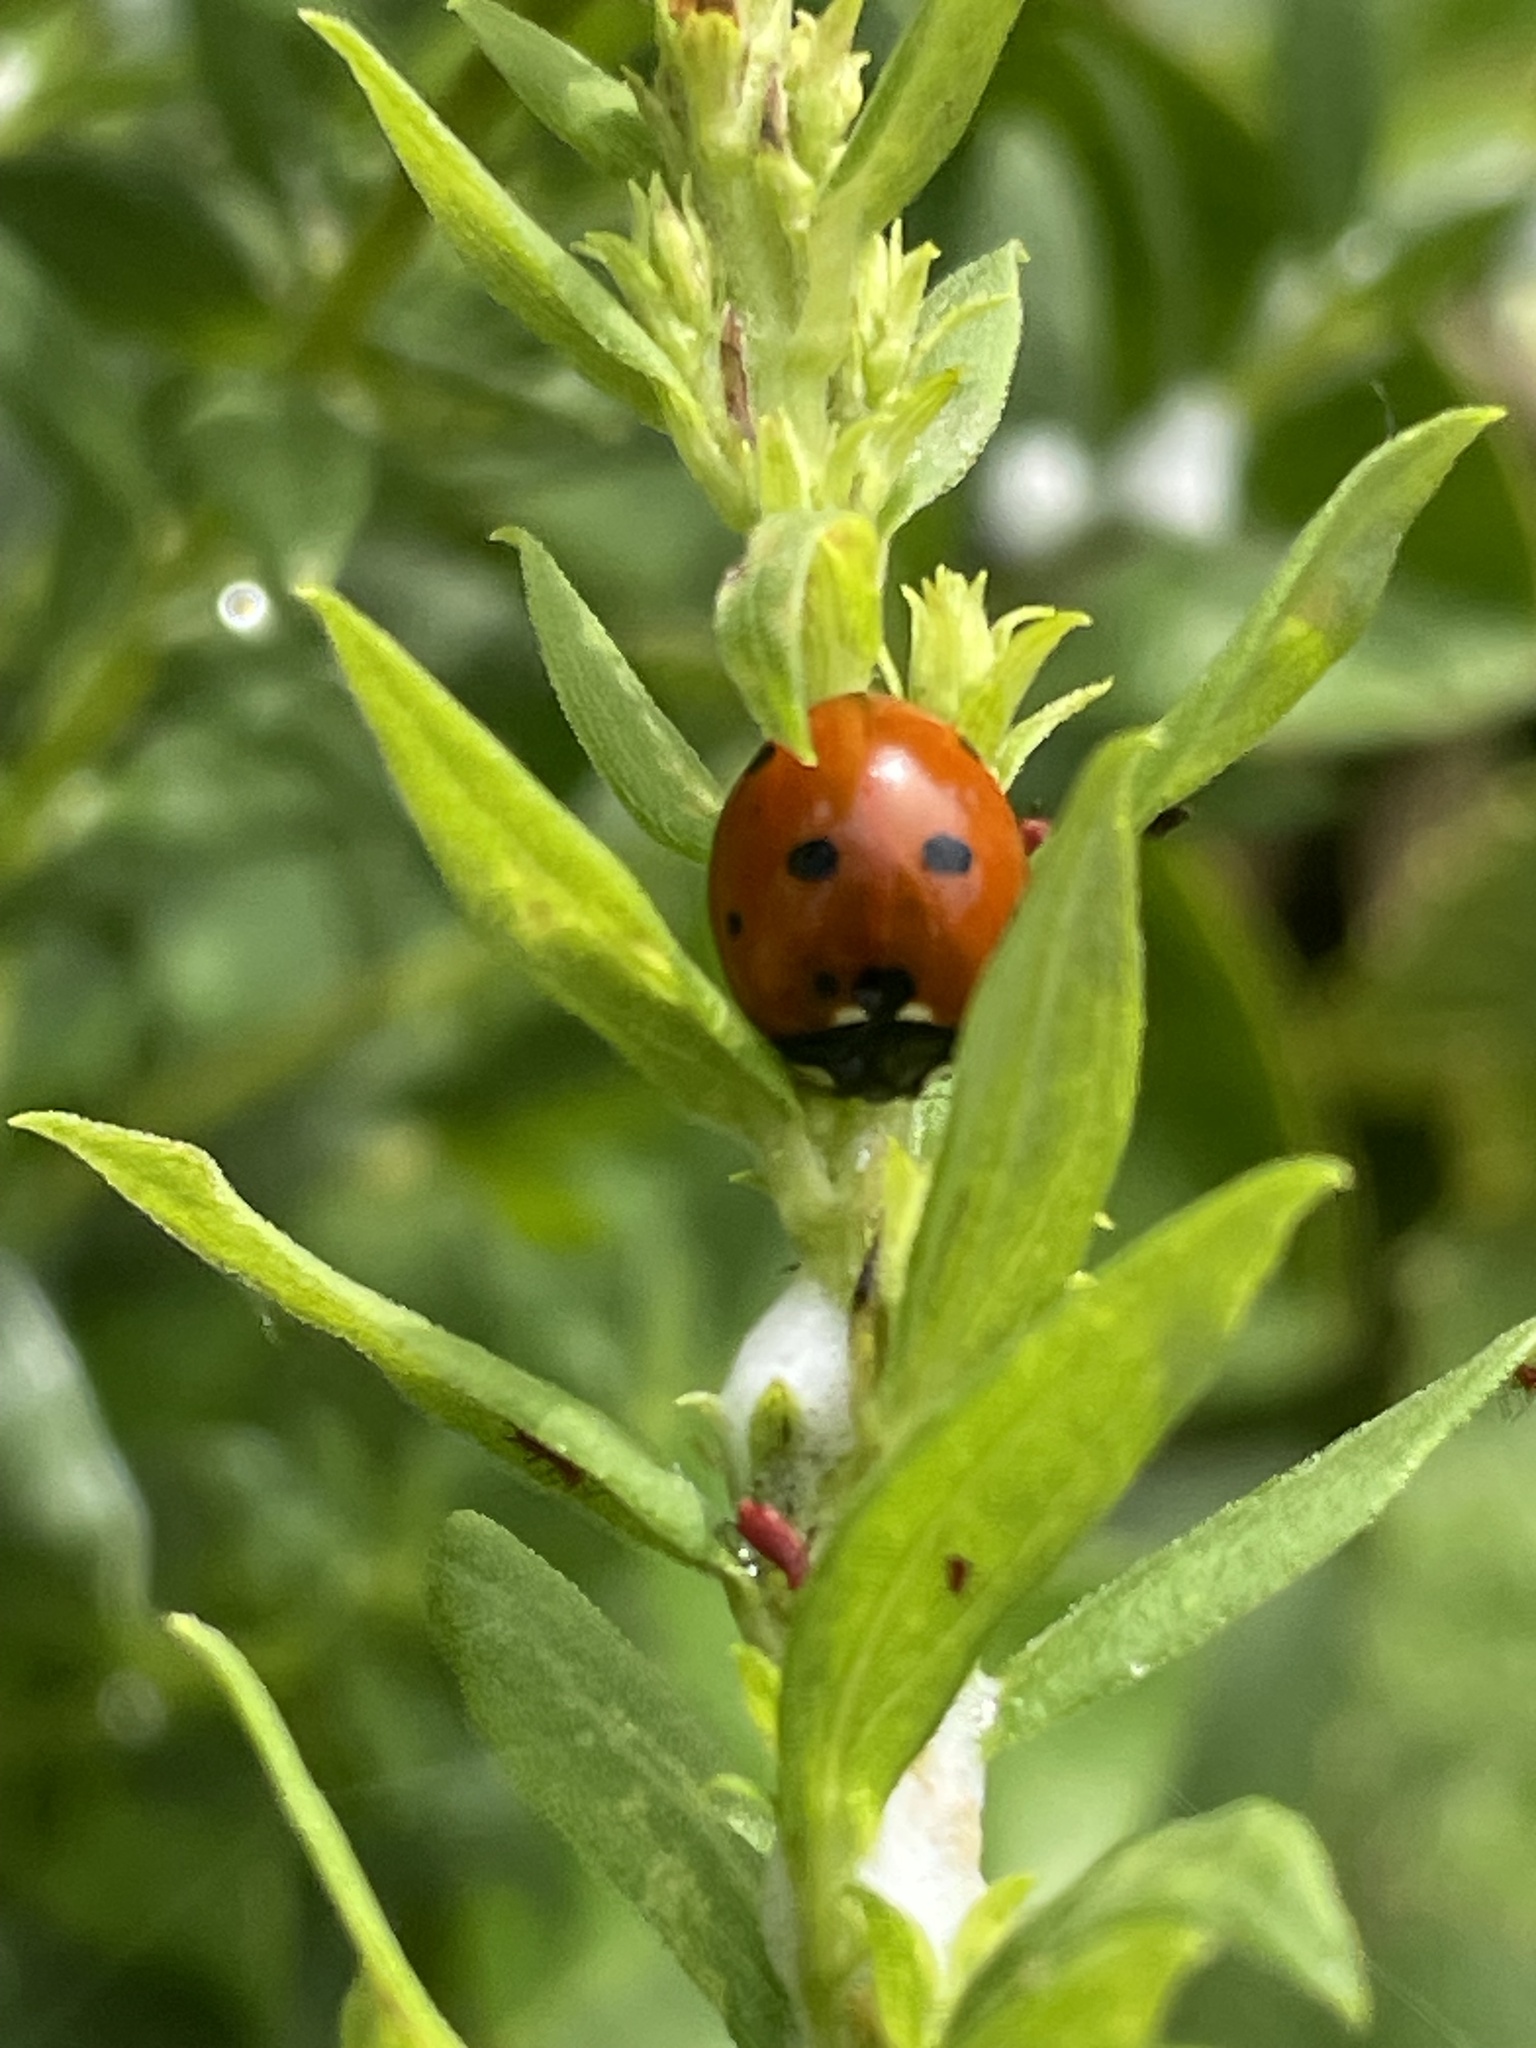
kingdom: Animalia
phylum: Arthropoda
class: Insecta
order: Coleoptera
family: Coccinellidae
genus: Coccinella
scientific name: Coccinella septempunctata
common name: Sevenspotted lady beetle
